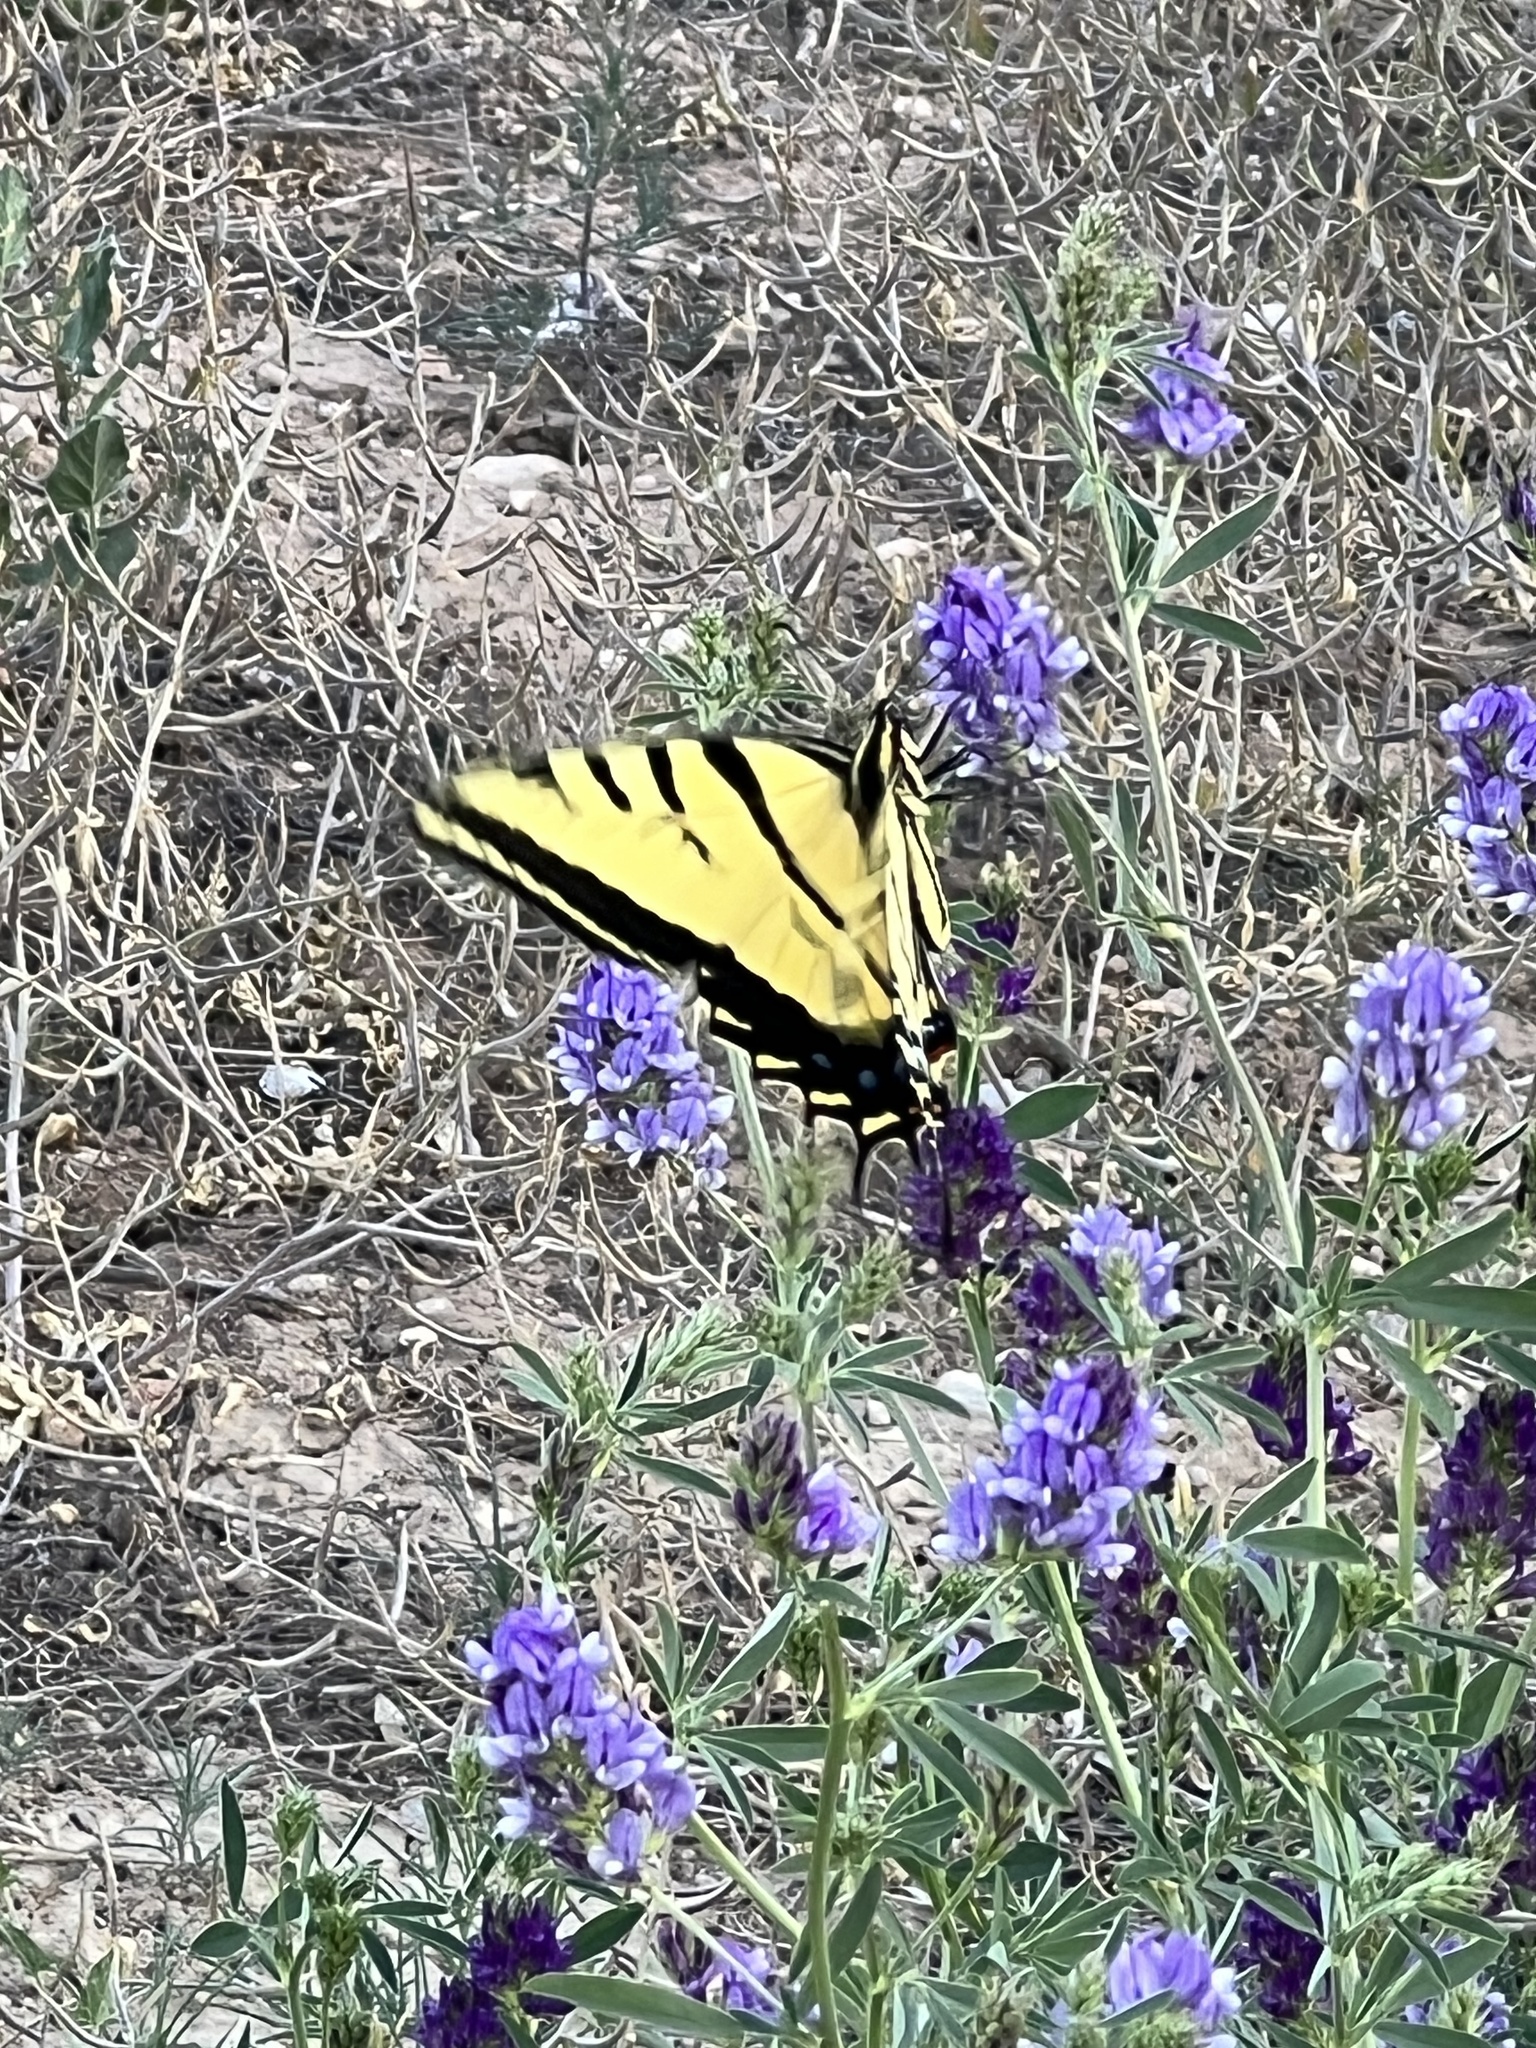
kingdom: Animalia
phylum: Arthropoda
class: Insecta
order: Lepidoptera
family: Papilionidae
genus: Papilio
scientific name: Papilio multicaudata
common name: Two-tailed tiger swallowtail
